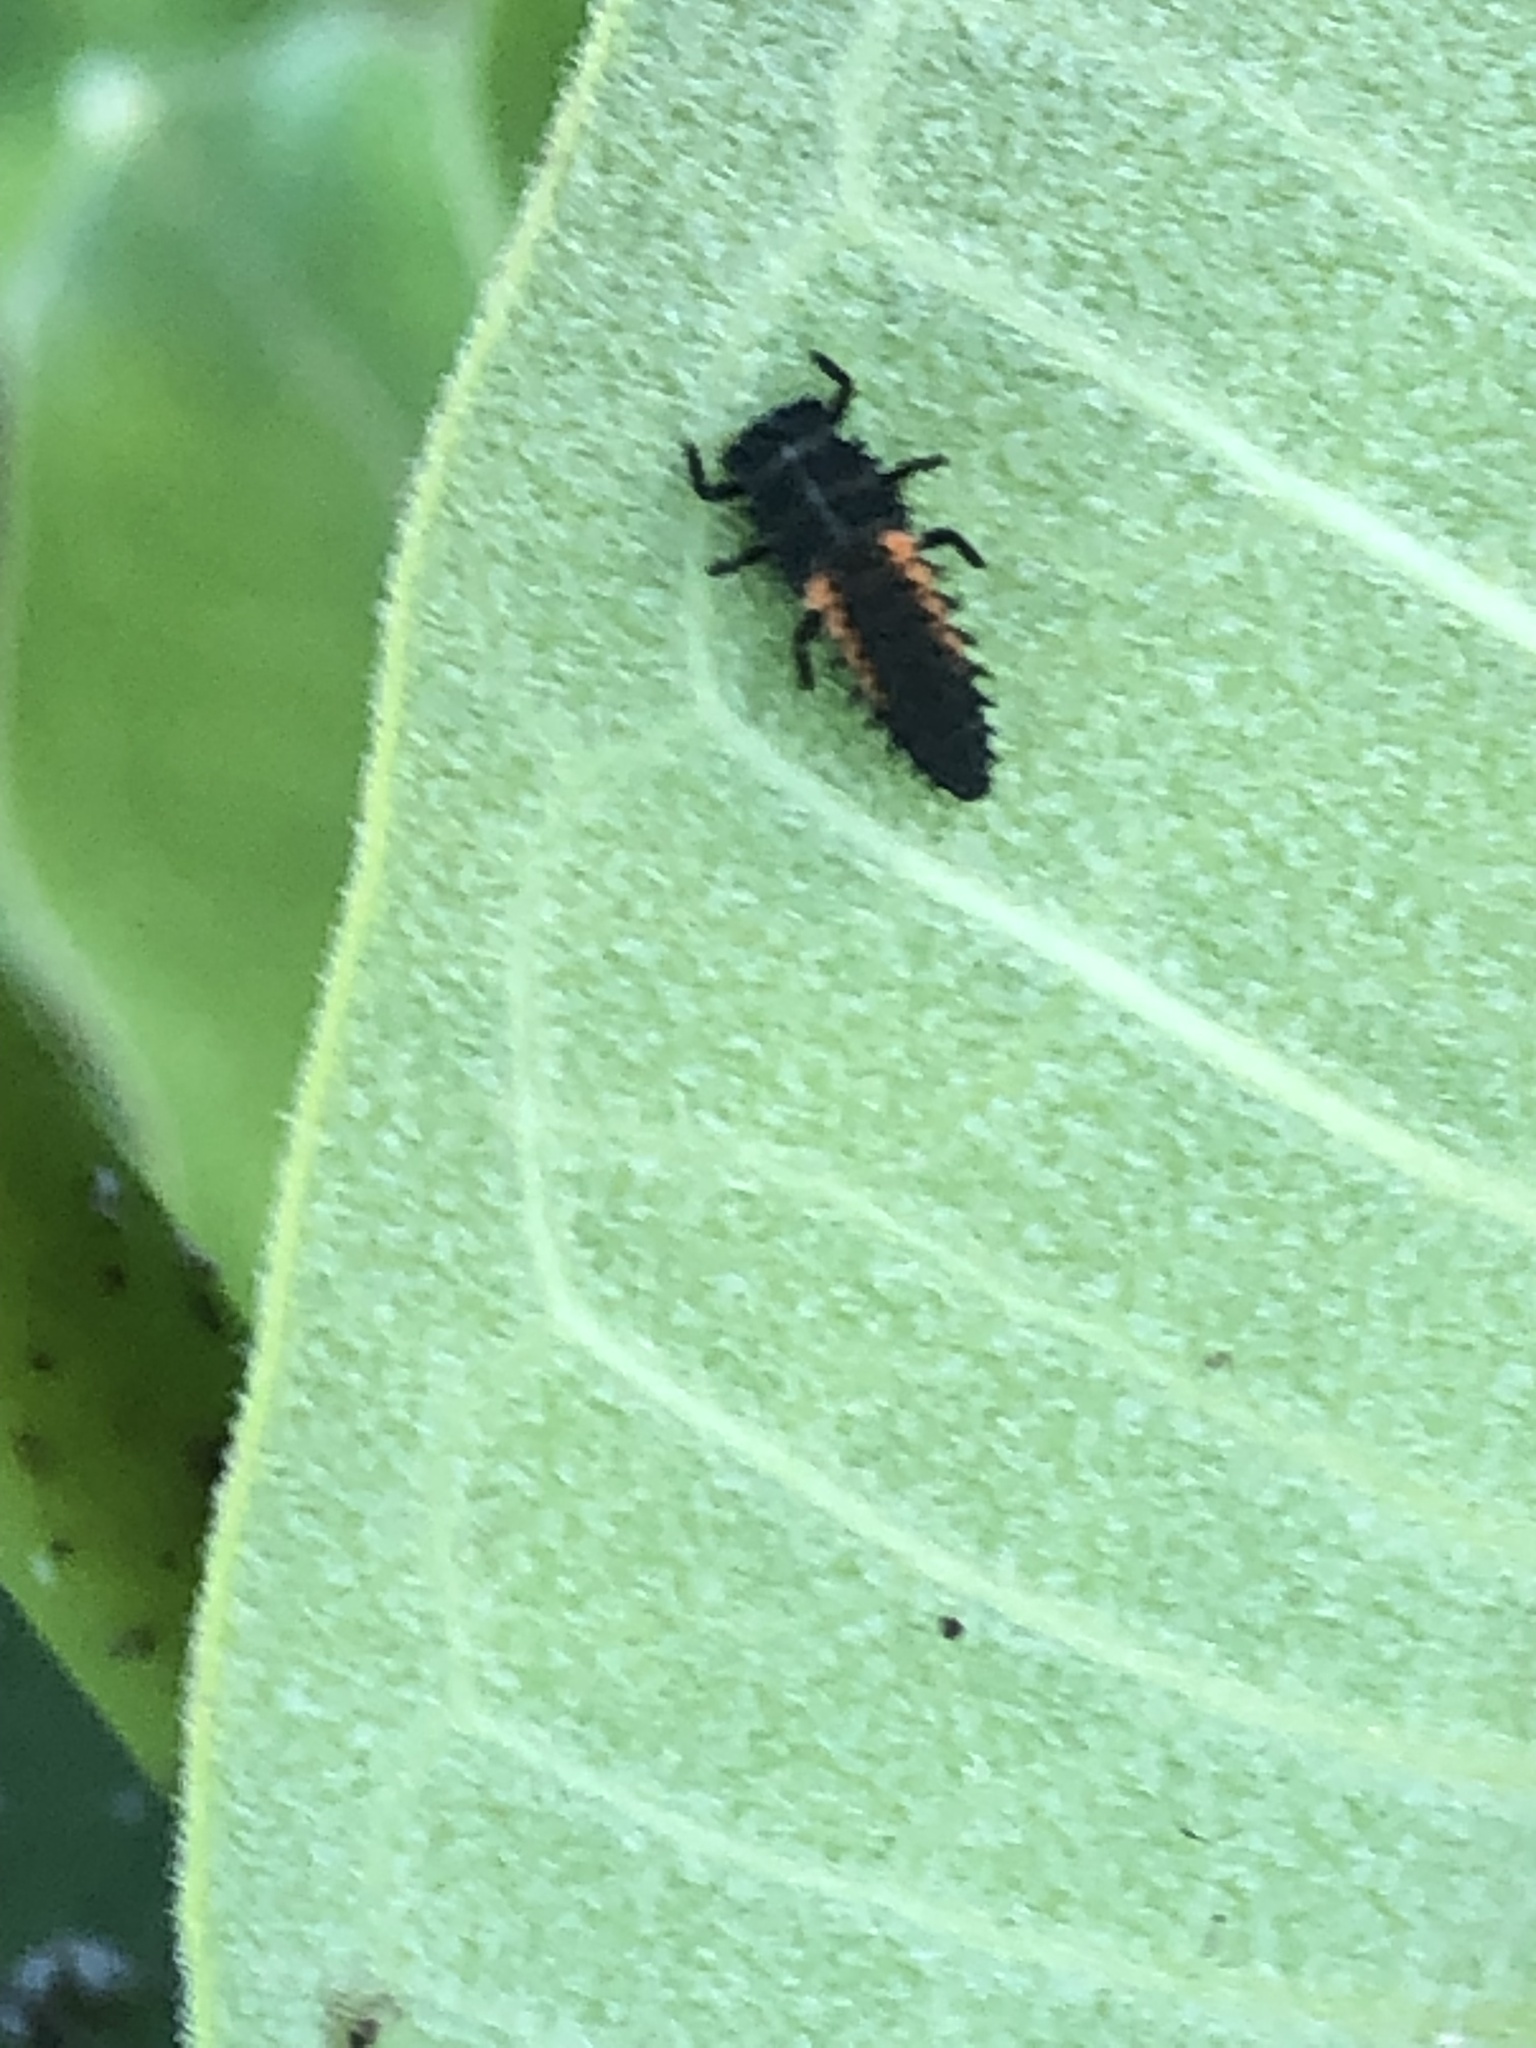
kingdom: Animalia
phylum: Arthropoda
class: Insecta
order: Coleoptera
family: Coccinellidae
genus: Harmonia
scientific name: Harmonia axyridis
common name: Harlequin ladybird
